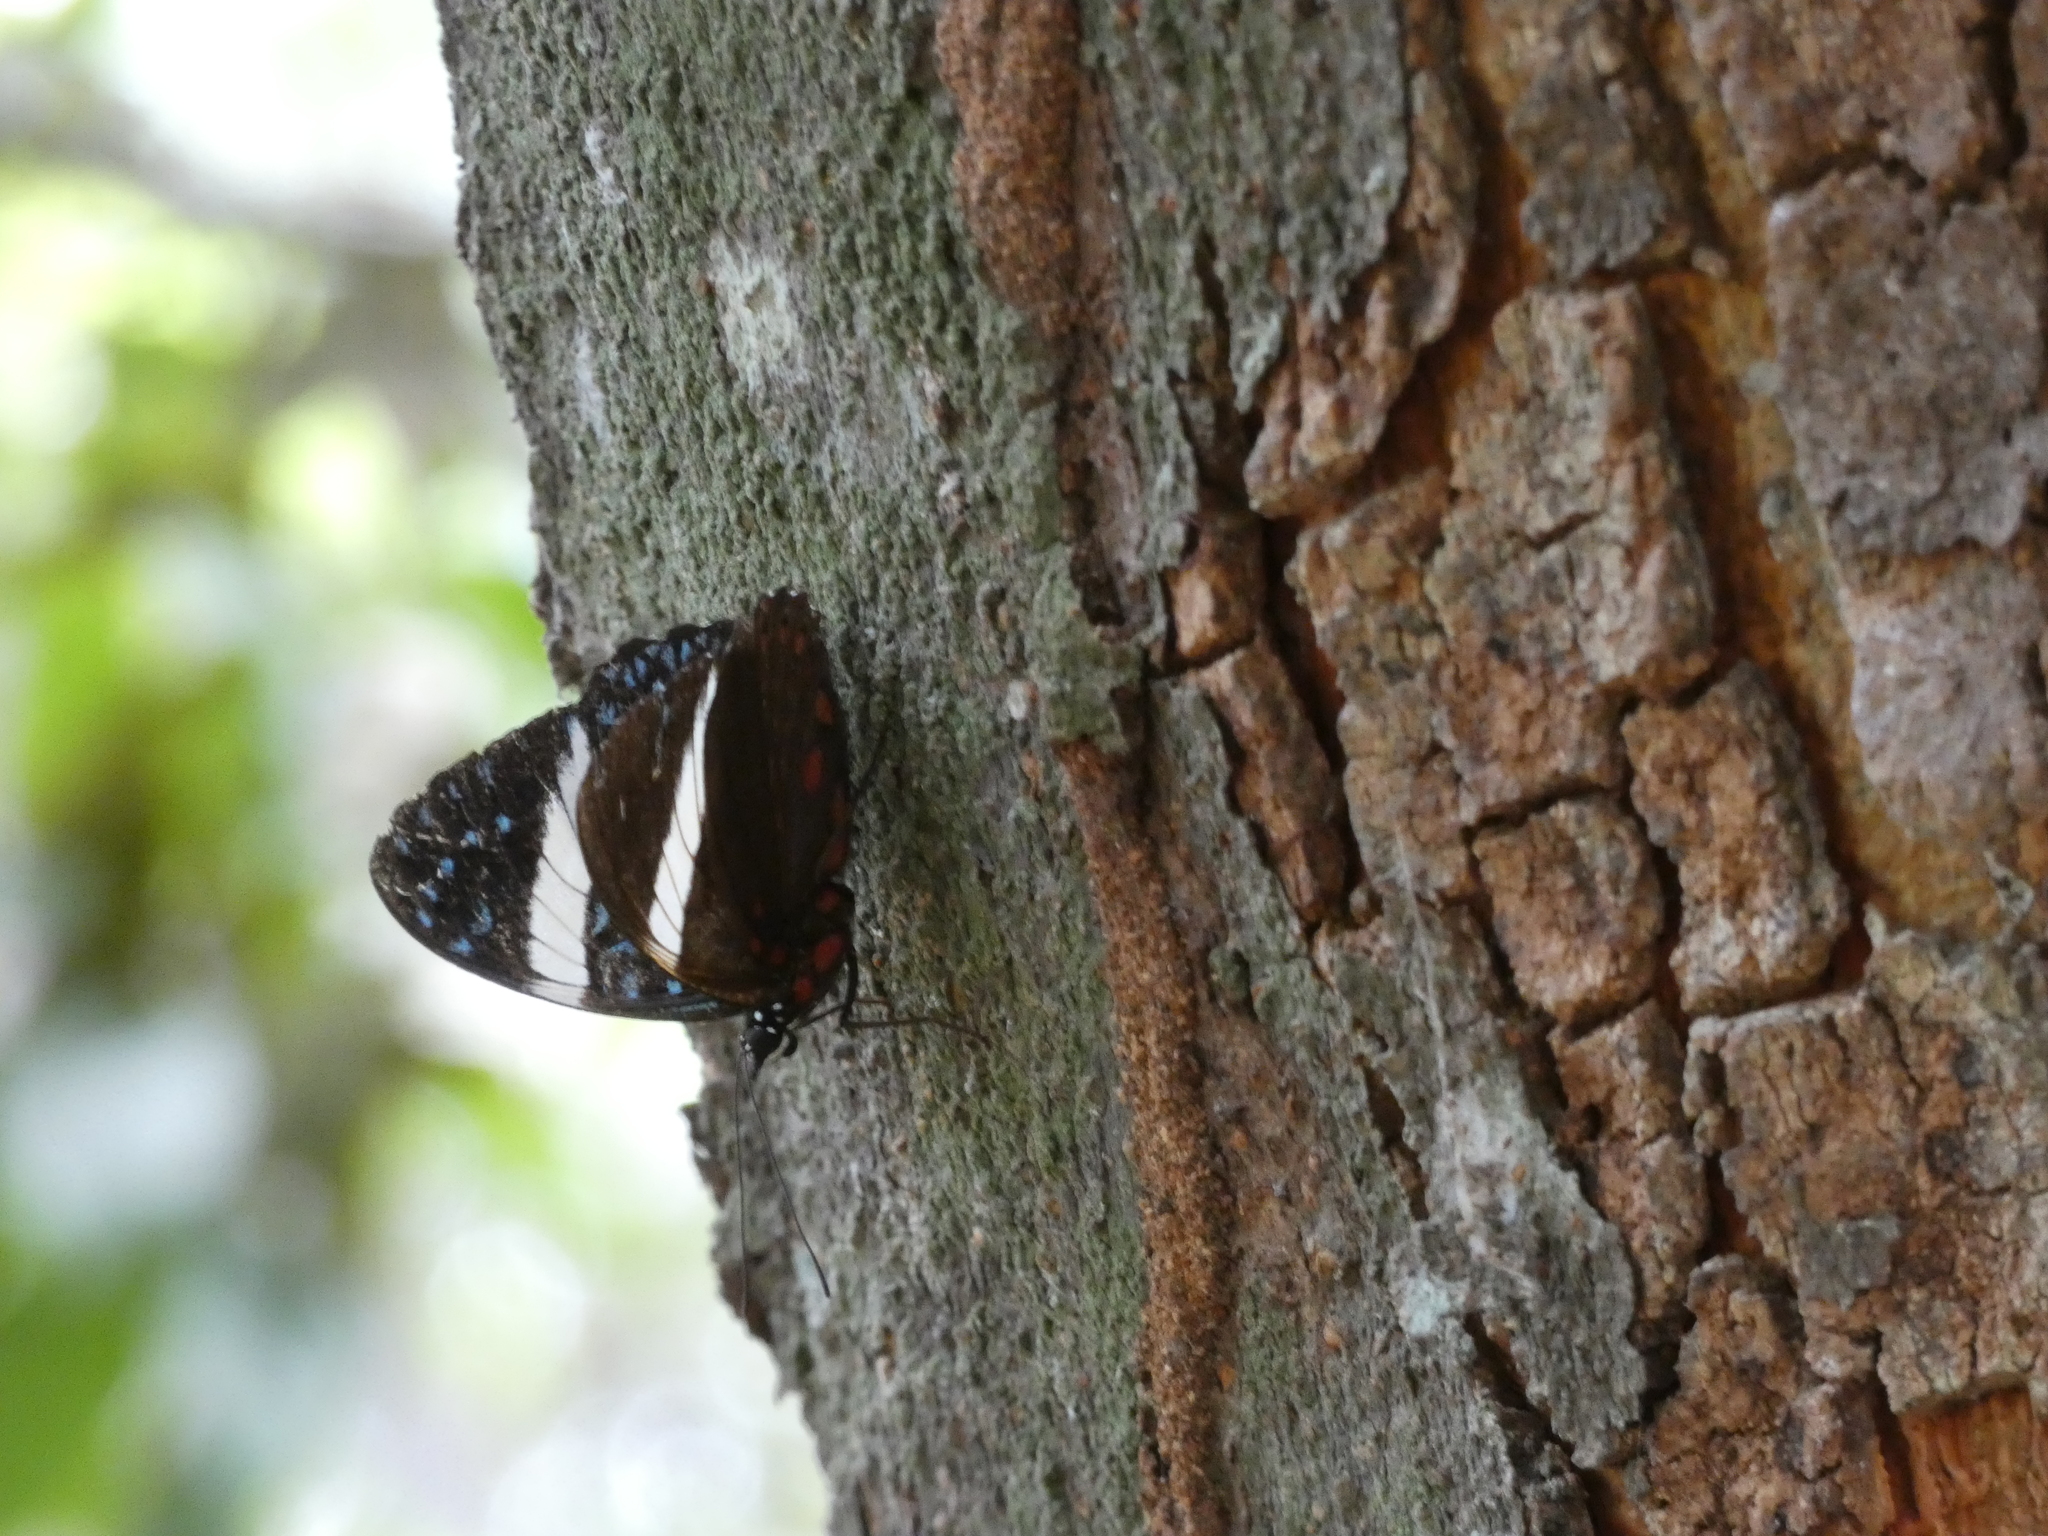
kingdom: Animalia
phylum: Arthropoda
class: Insecta
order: Lepidoptera
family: Nymphalidae
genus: Hamadryas
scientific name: Hamadryas laodamia
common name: Starry night cracker
